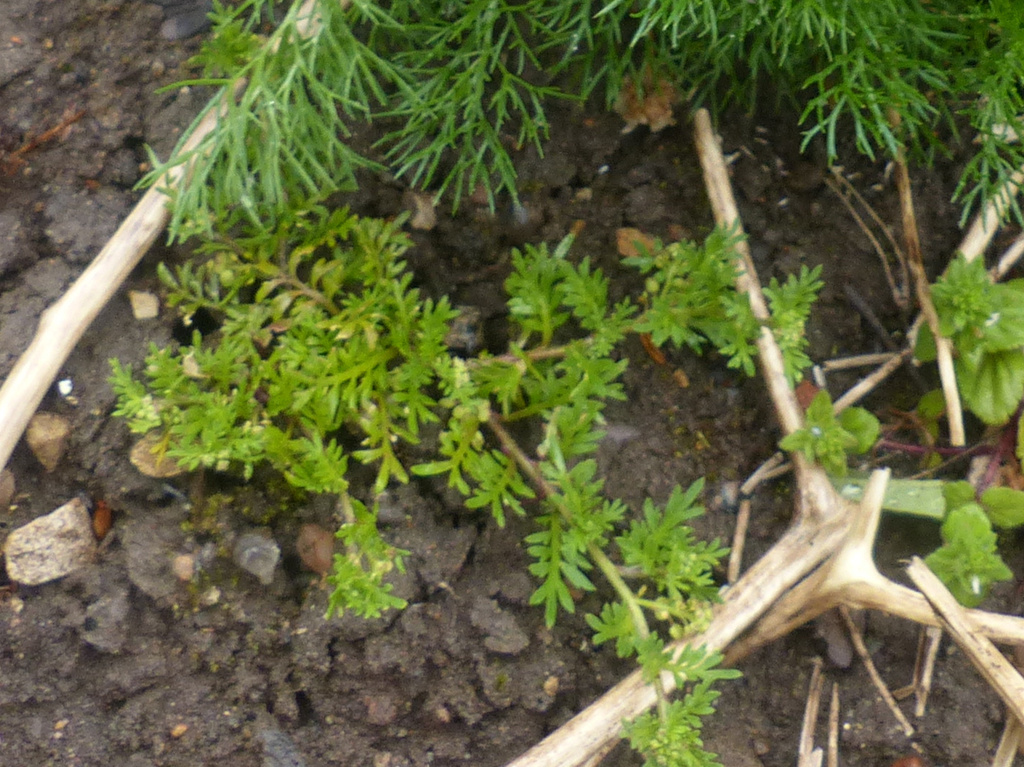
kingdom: Plantae
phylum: Tracheophyta
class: Magnoliopsida
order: Brassicales
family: Brassicaceae
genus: Lepidium
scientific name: Lepidium didymum
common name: Lesser swinecress
